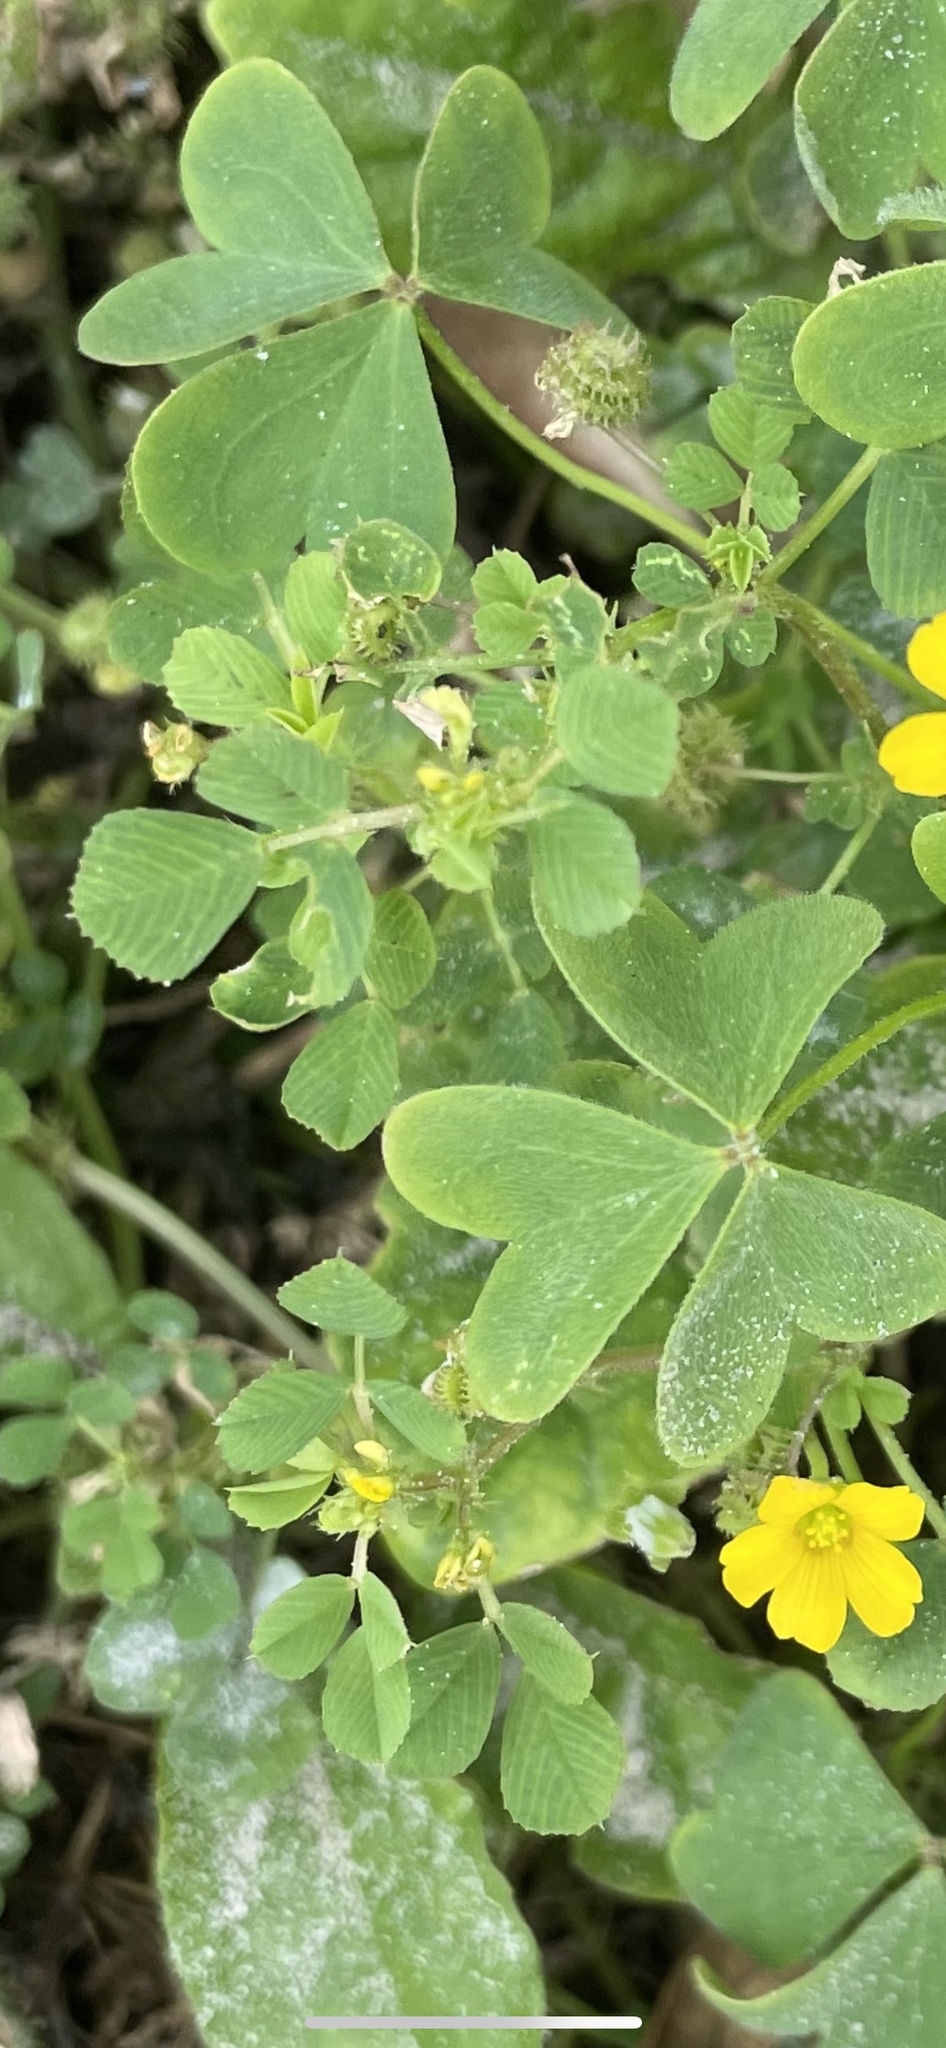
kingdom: Plantae
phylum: Tracheophyta
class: Magnoliopsida
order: Fabales
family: Fabaceae
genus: Medicago
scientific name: Medicago polymorpha
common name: Burclover
